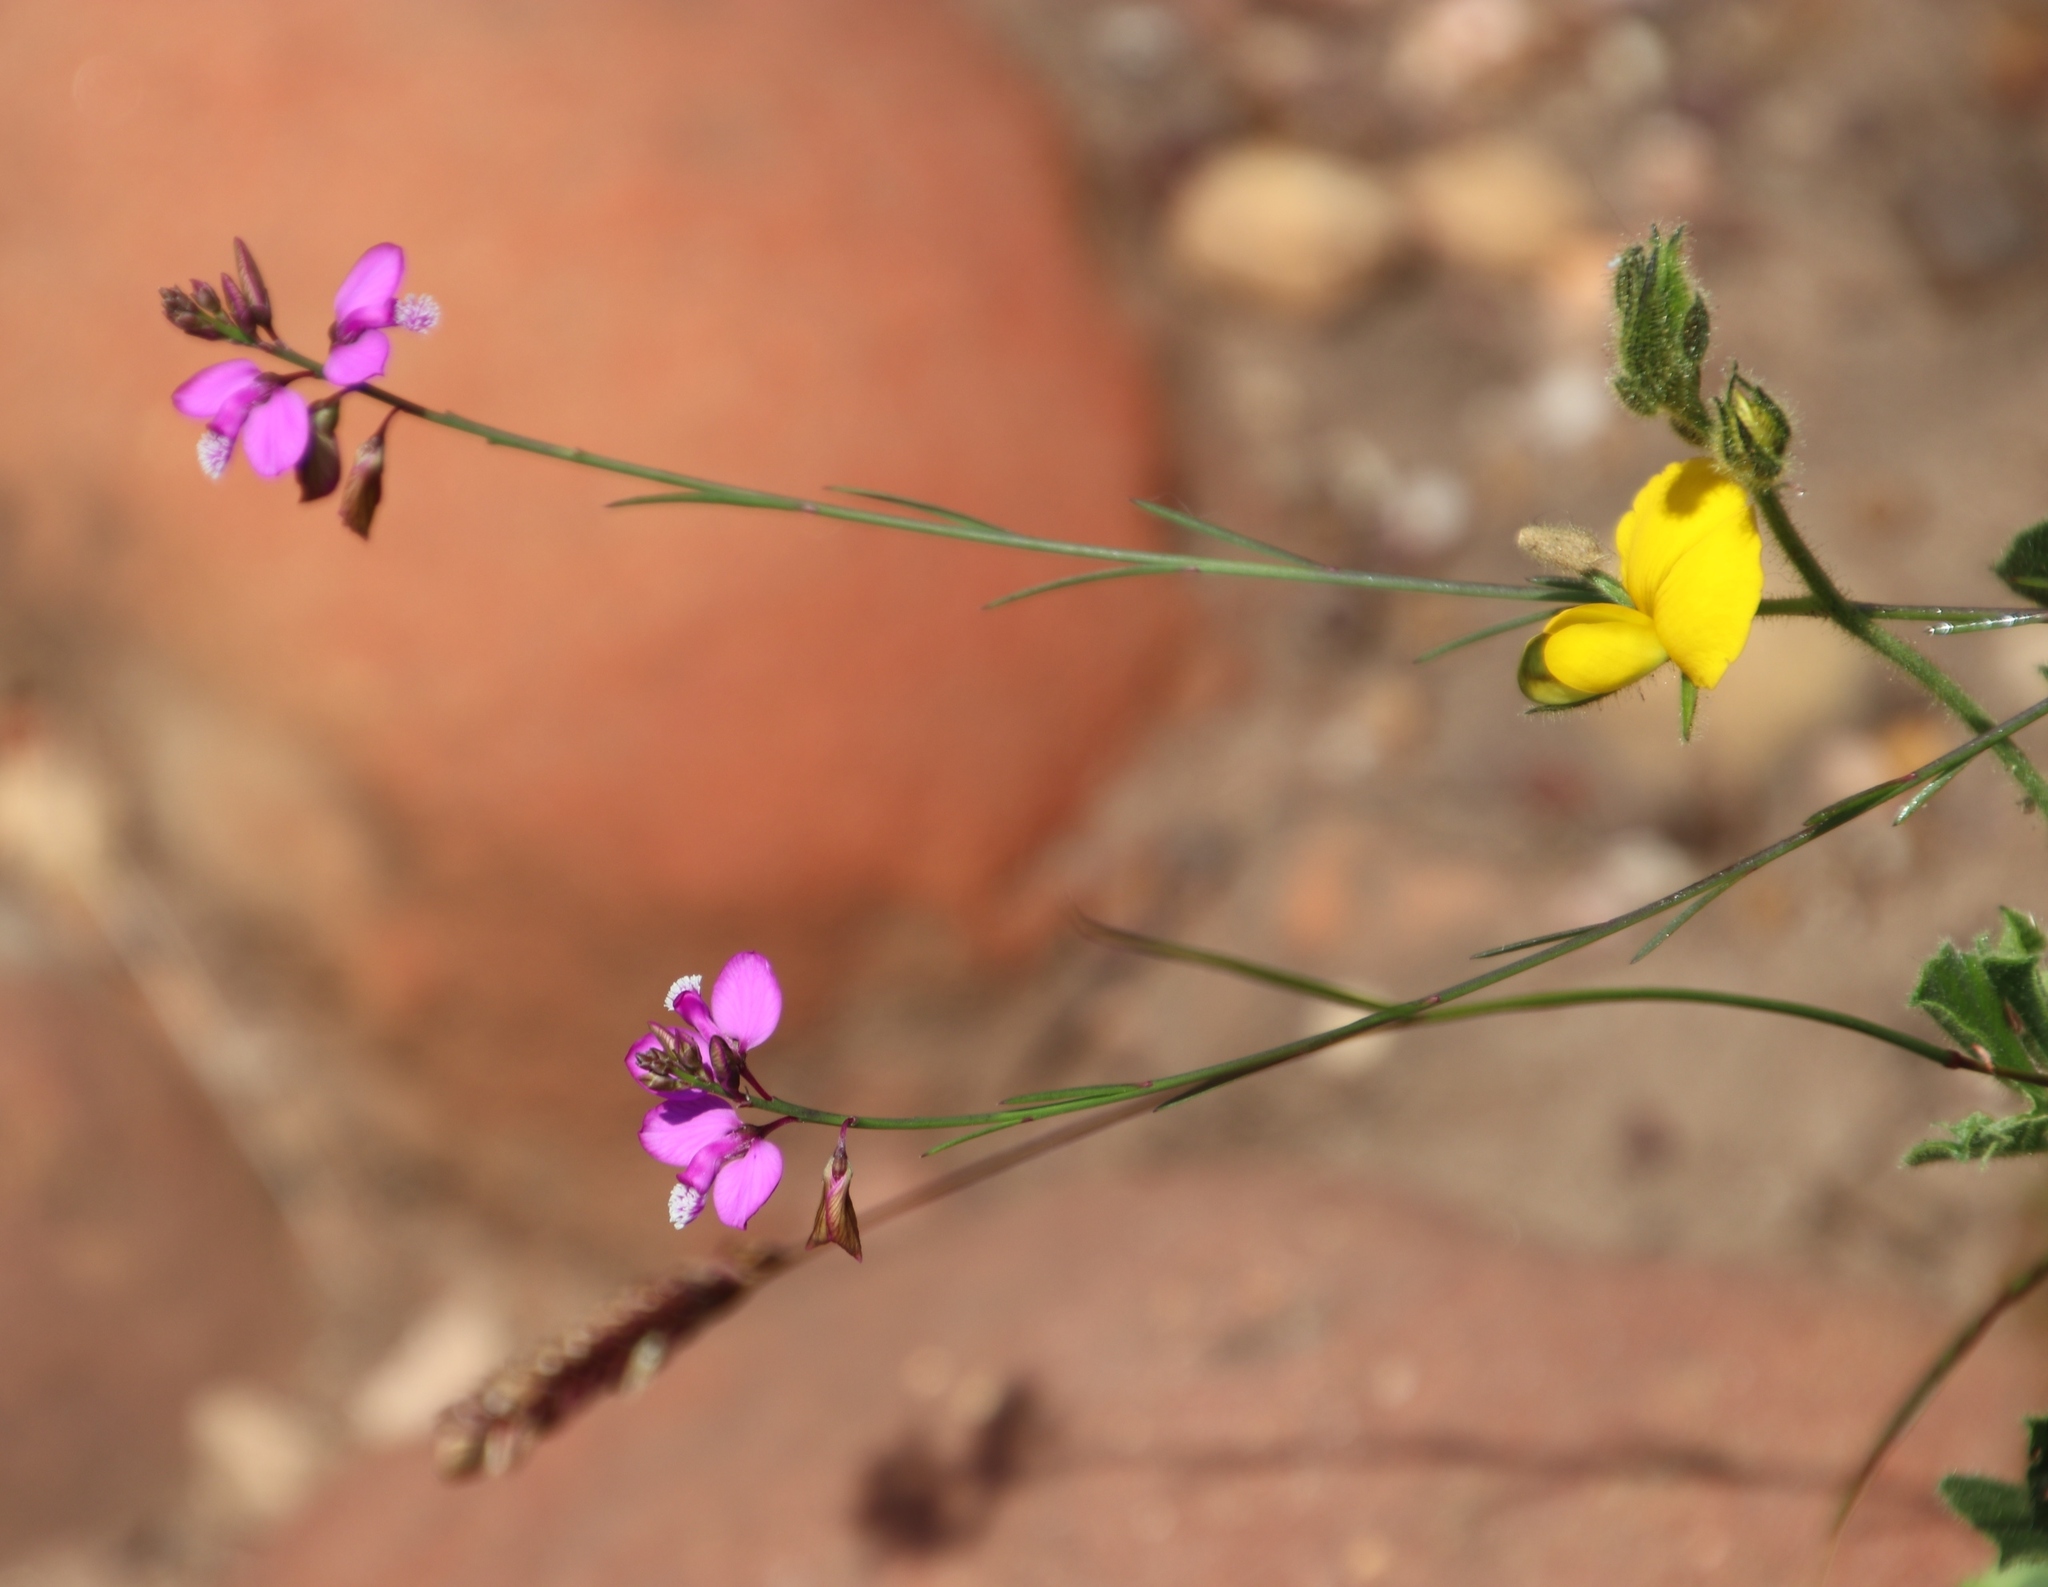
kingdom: Plantae
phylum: Tracheophyta
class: Magnoliopsida
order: Fabales
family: Polygalaceae
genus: Polygala
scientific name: Polygala garcini
